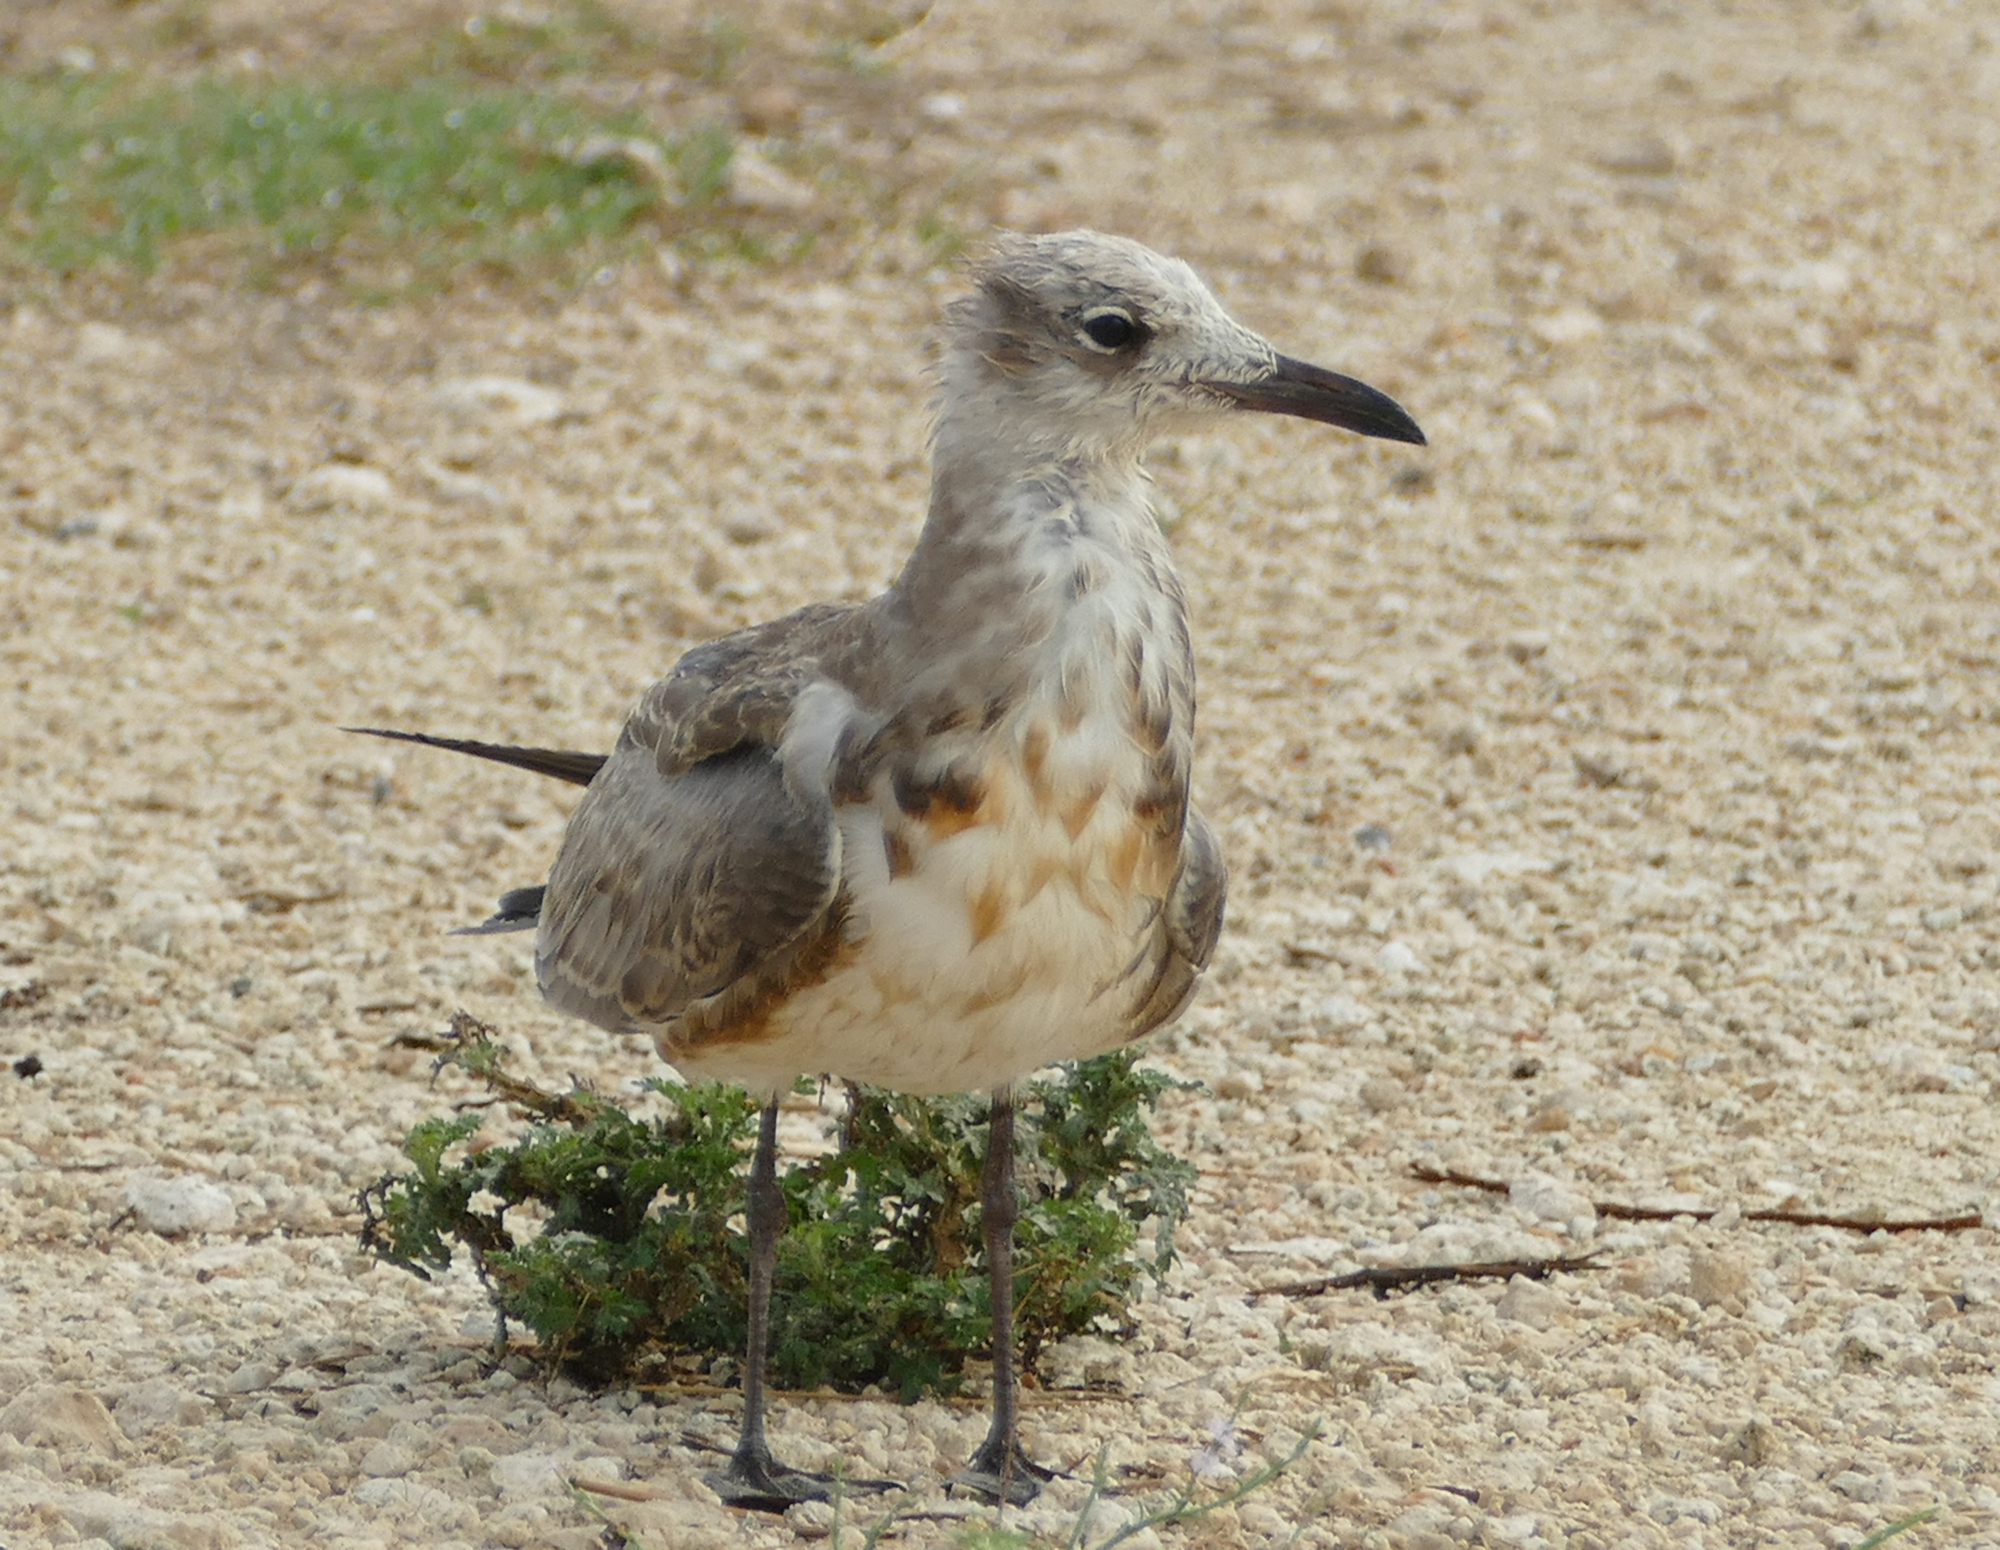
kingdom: Animalia
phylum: Chordata
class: Aves
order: Charadriiformes
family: Laridae
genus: Leucophaeus
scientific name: Leucophaeus atricilla
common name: Laughing gull
